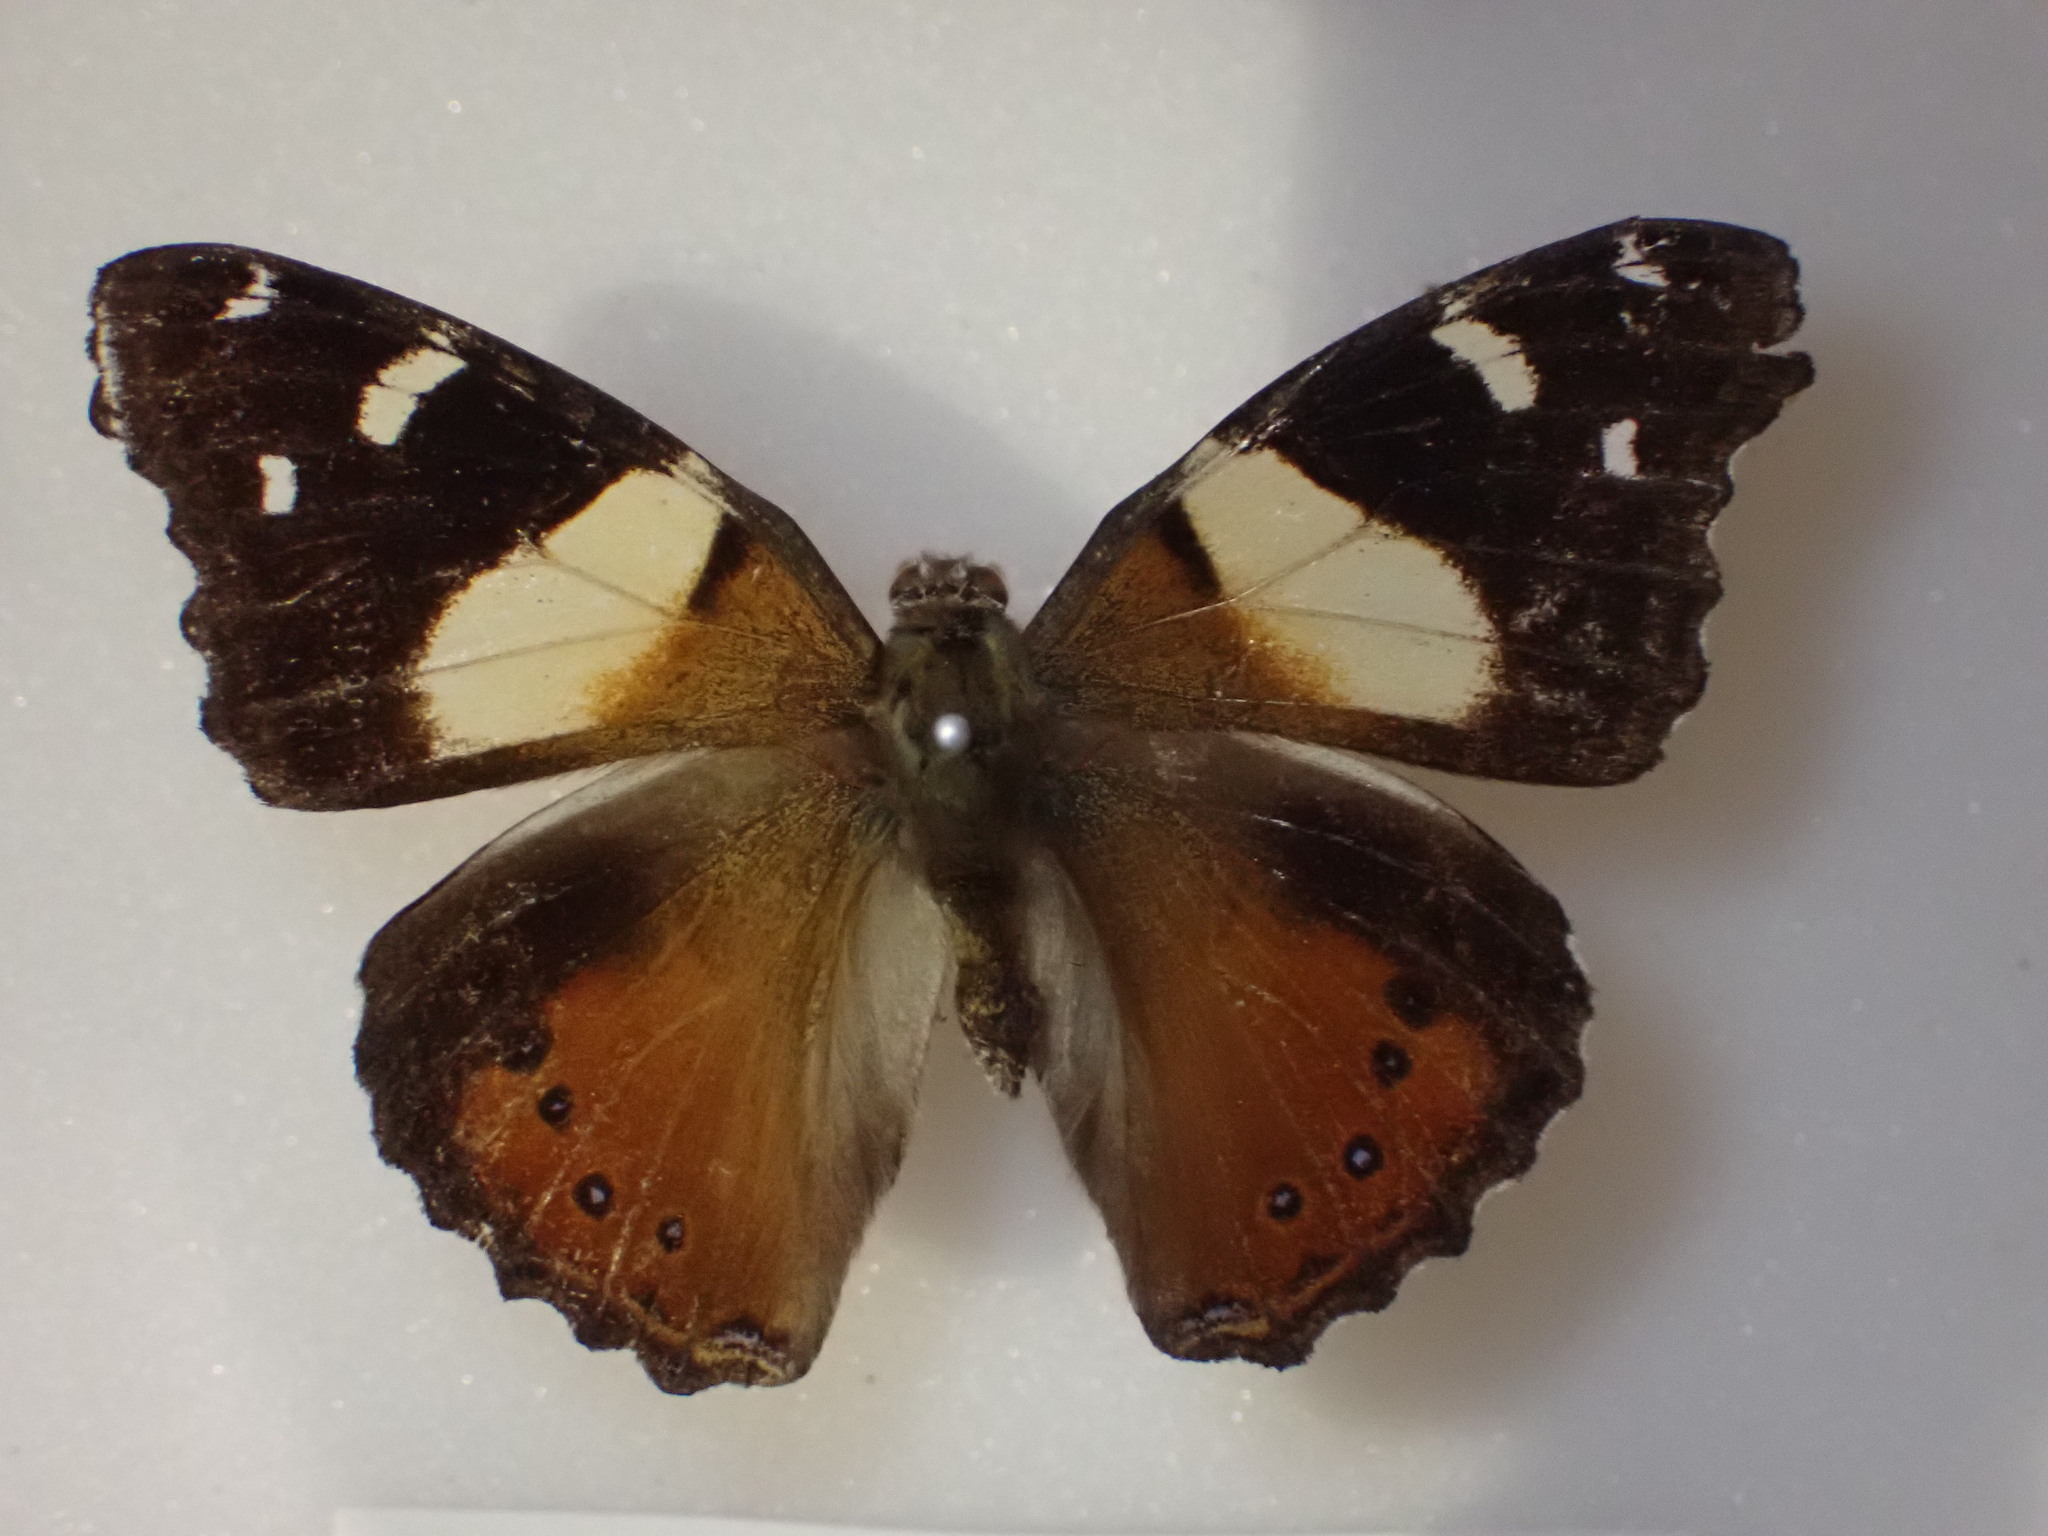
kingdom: Animalia
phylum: Arthropoda
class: Insecta
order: Lepidoptera
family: Nymphalidae
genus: Vanessa
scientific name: Vanessa itea
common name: Yellow admiral
